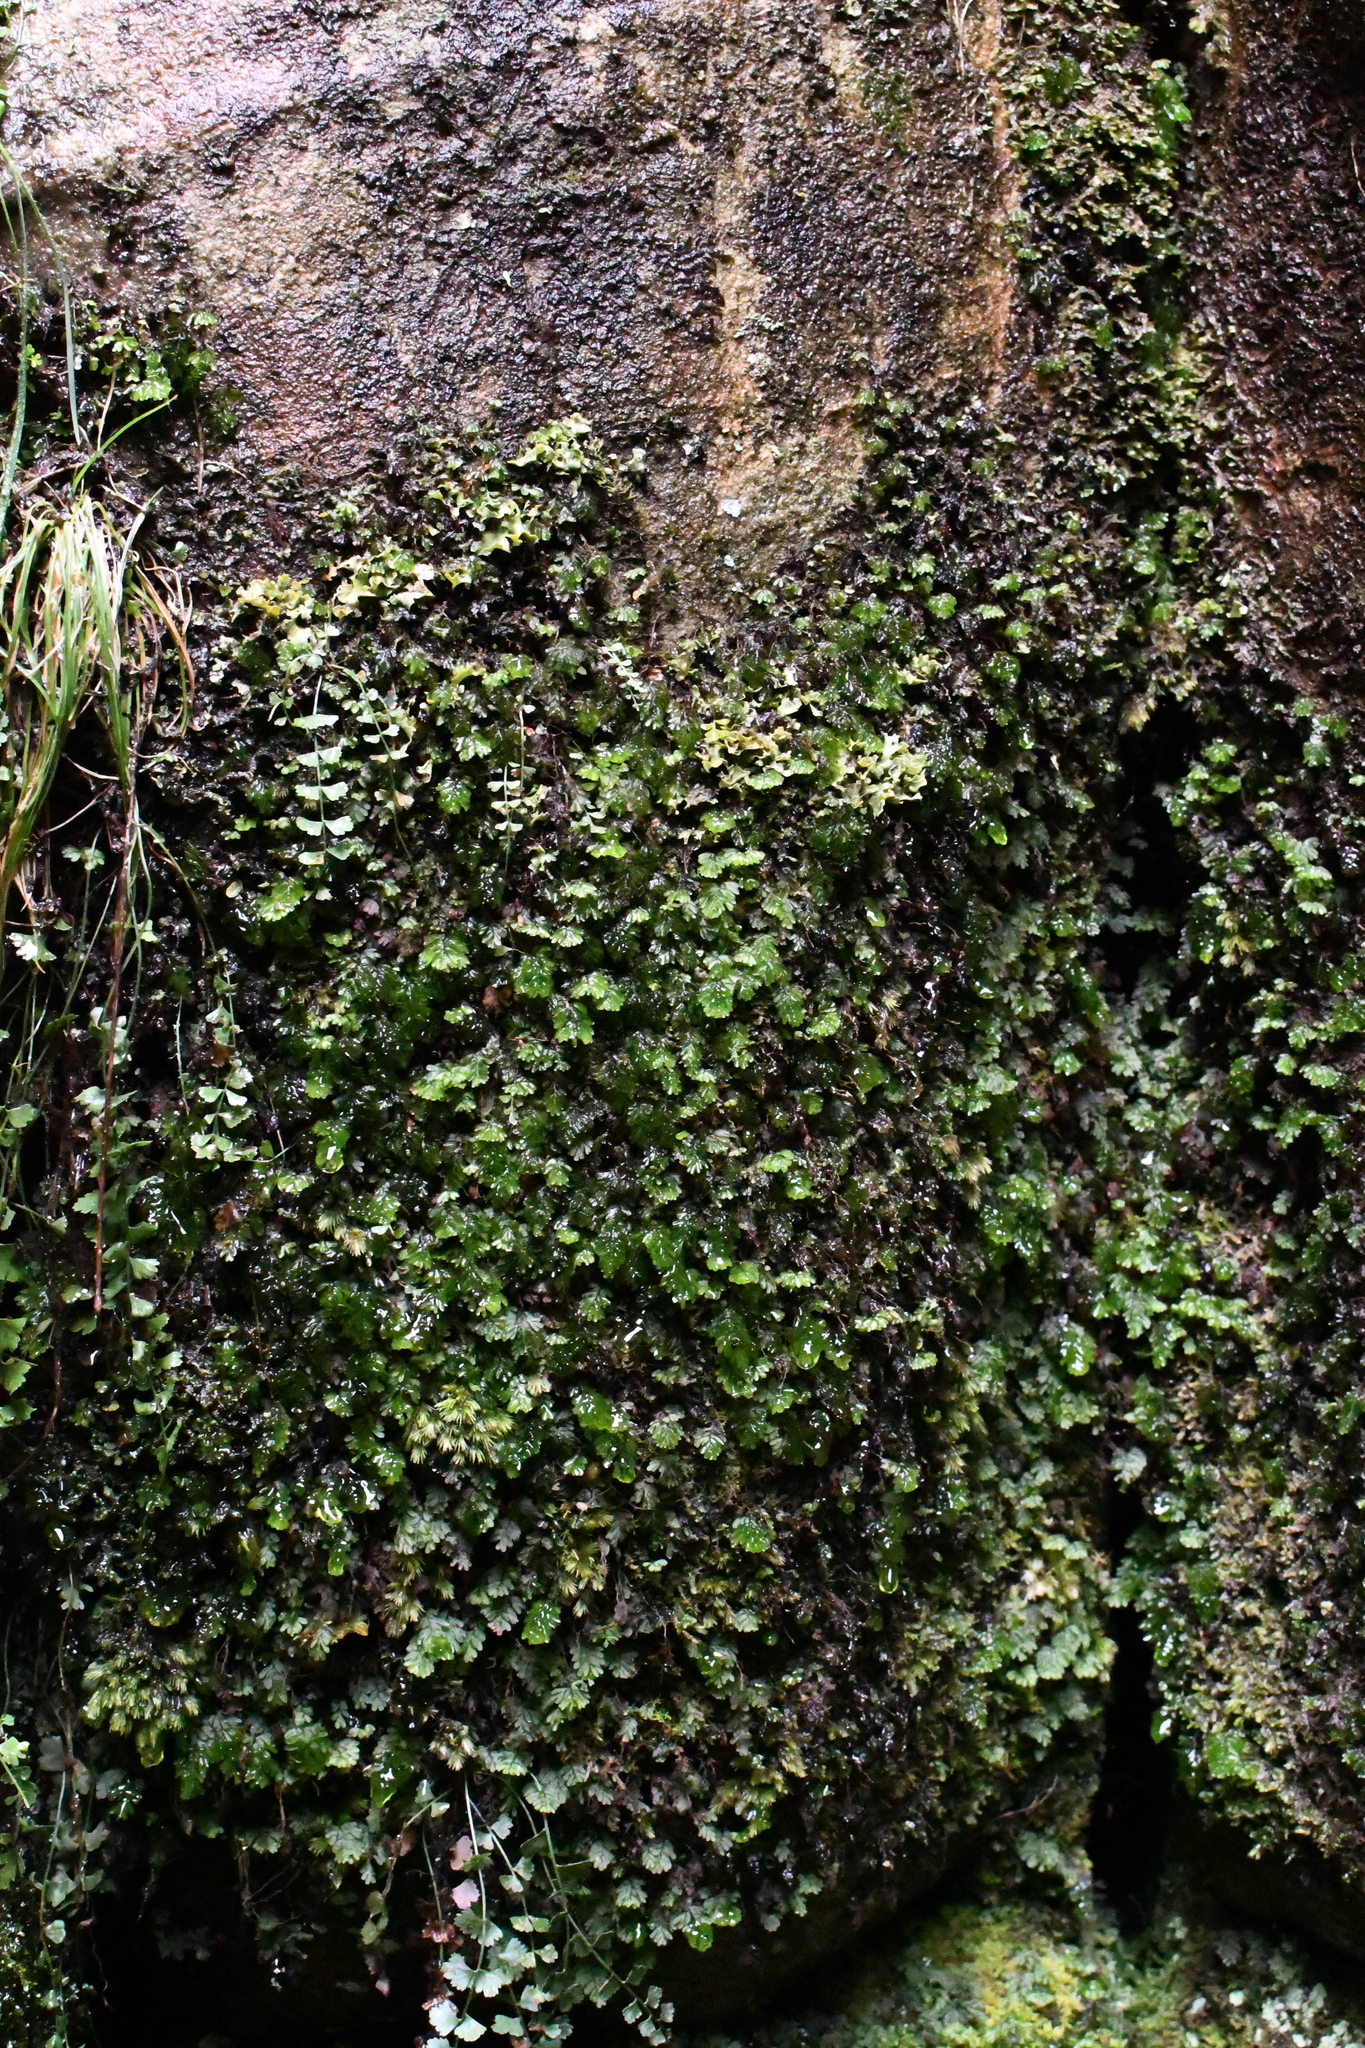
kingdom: Plantae
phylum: Tracheophyta
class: Polypodiopsida
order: Hymenophyllales
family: Hymenophyllaceae
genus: Hymenophyllum
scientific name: Hymenophyllum cupressiforme
